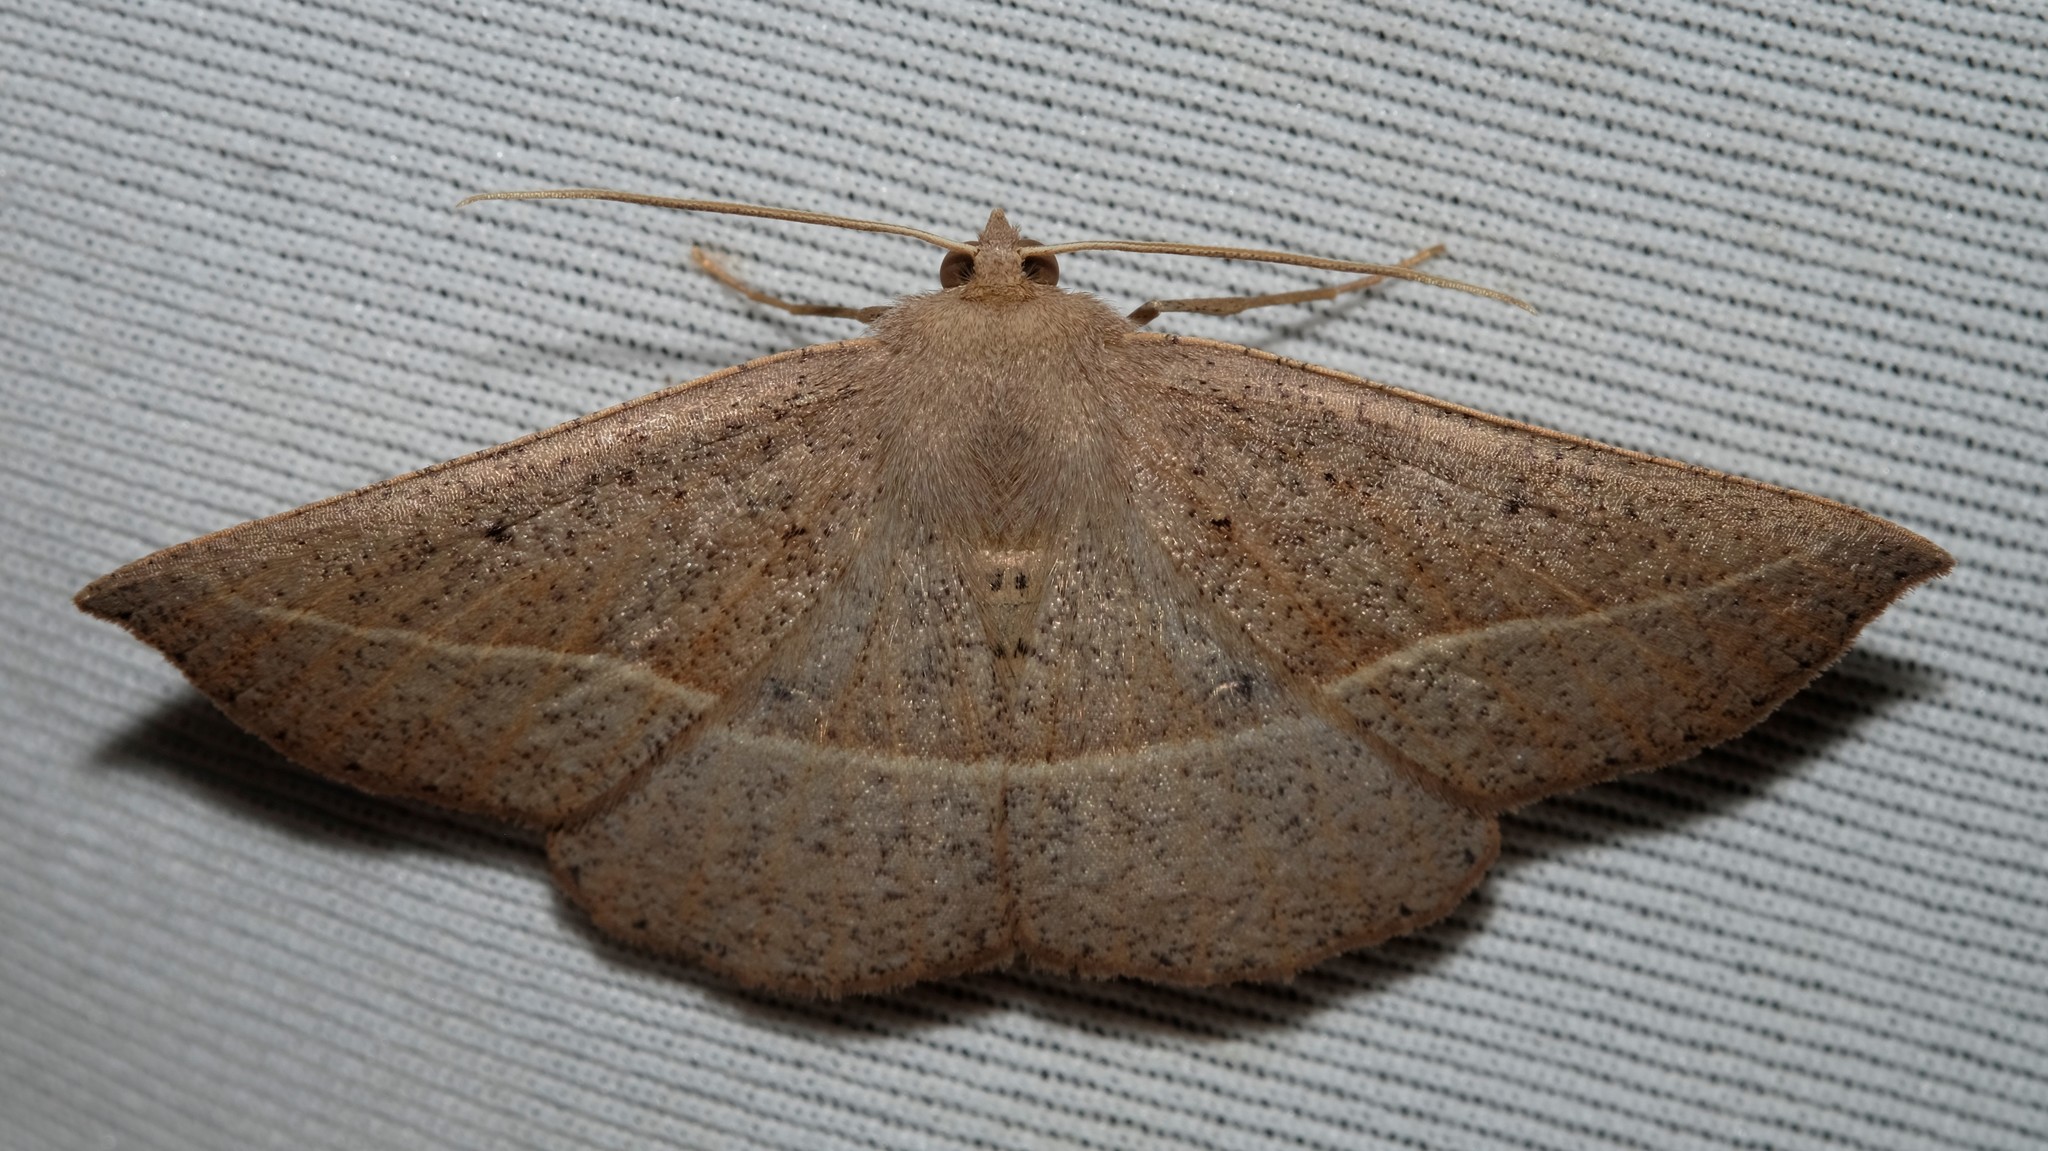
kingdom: Animalia
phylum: Arthropoda
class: Insecta
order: Lepidoptera
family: Geometridae
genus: Idiodes
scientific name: Idiodes apicata
